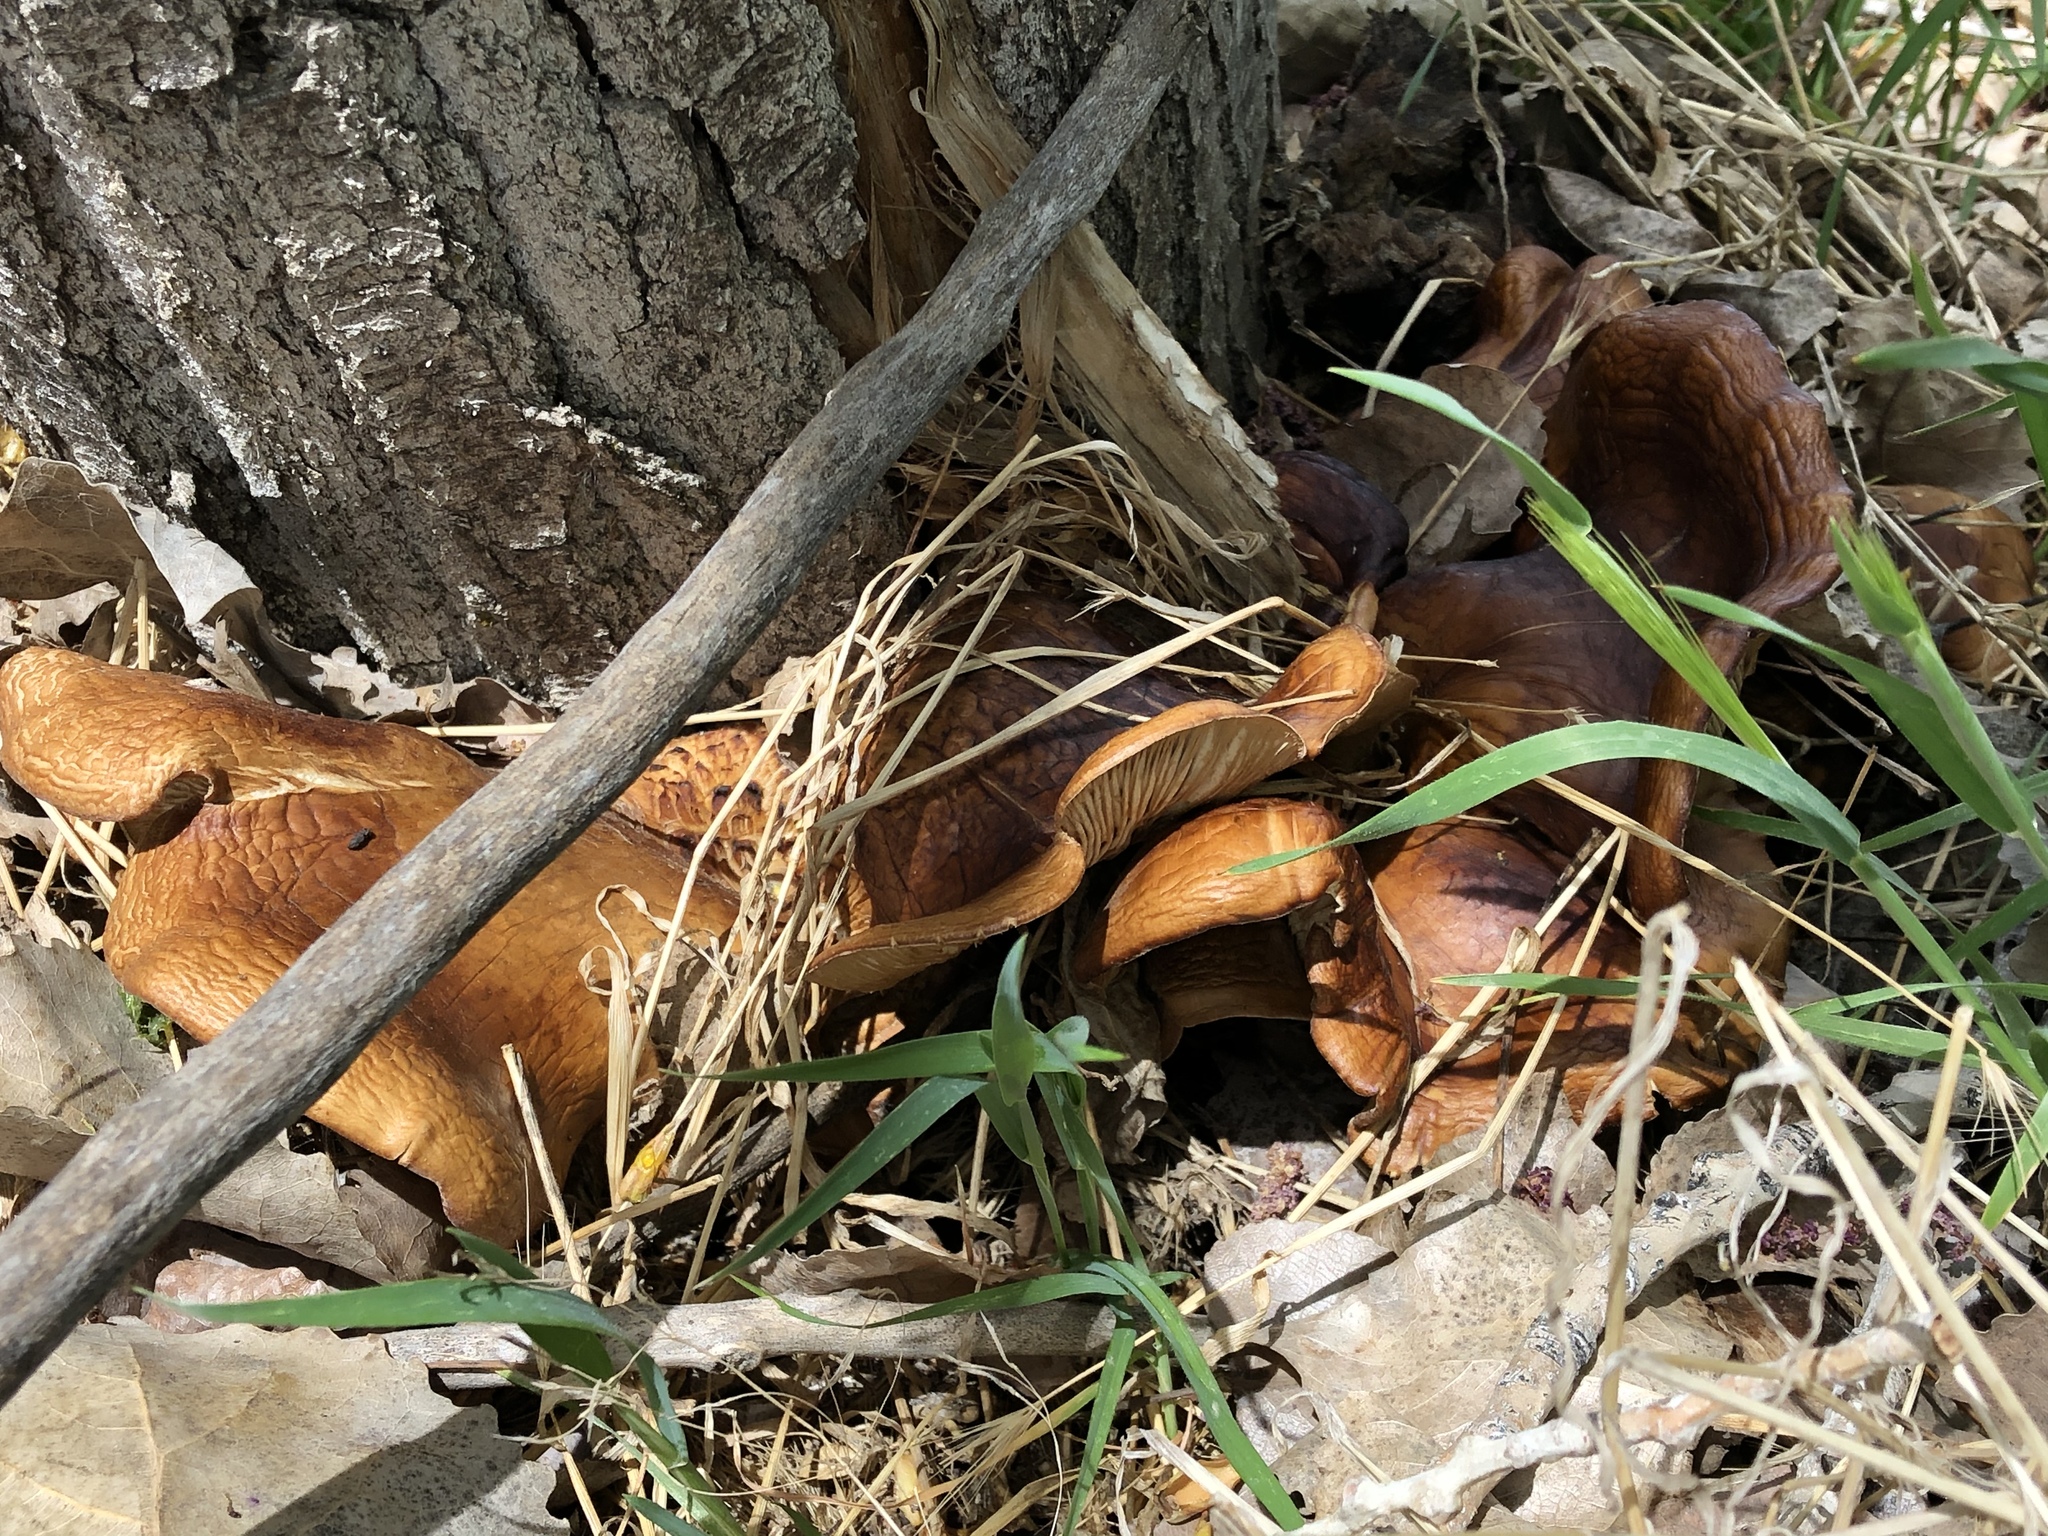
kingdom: Fungi
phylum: Basidiomycota
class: Agaricomycetes
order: Agaricales
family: Pleurotaceae
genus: Pleurotus
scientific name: Pleurotus ostreatus
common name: Oyster mushroom
